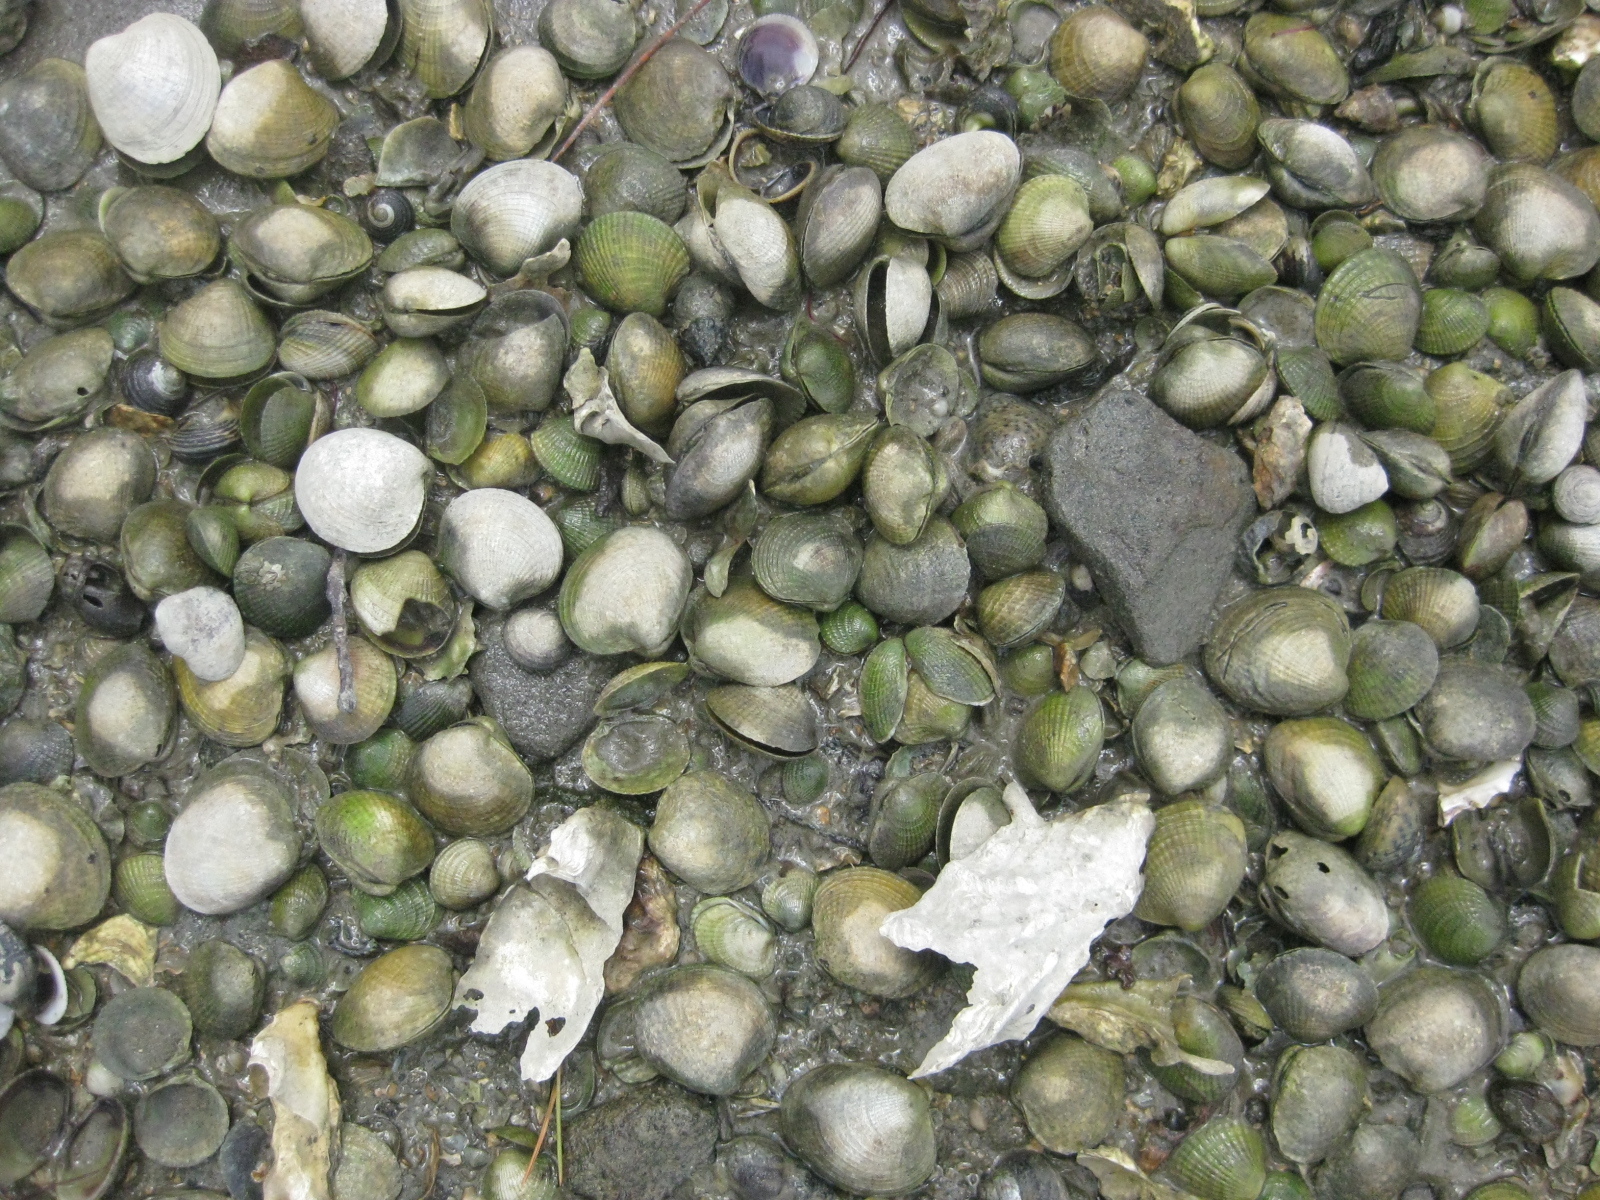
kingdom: Animalia
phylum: Mollusca
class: Bivalvia
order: Venerida
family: Veneridae
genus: Austrovenus
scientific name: Austrovenus stutchburyi
